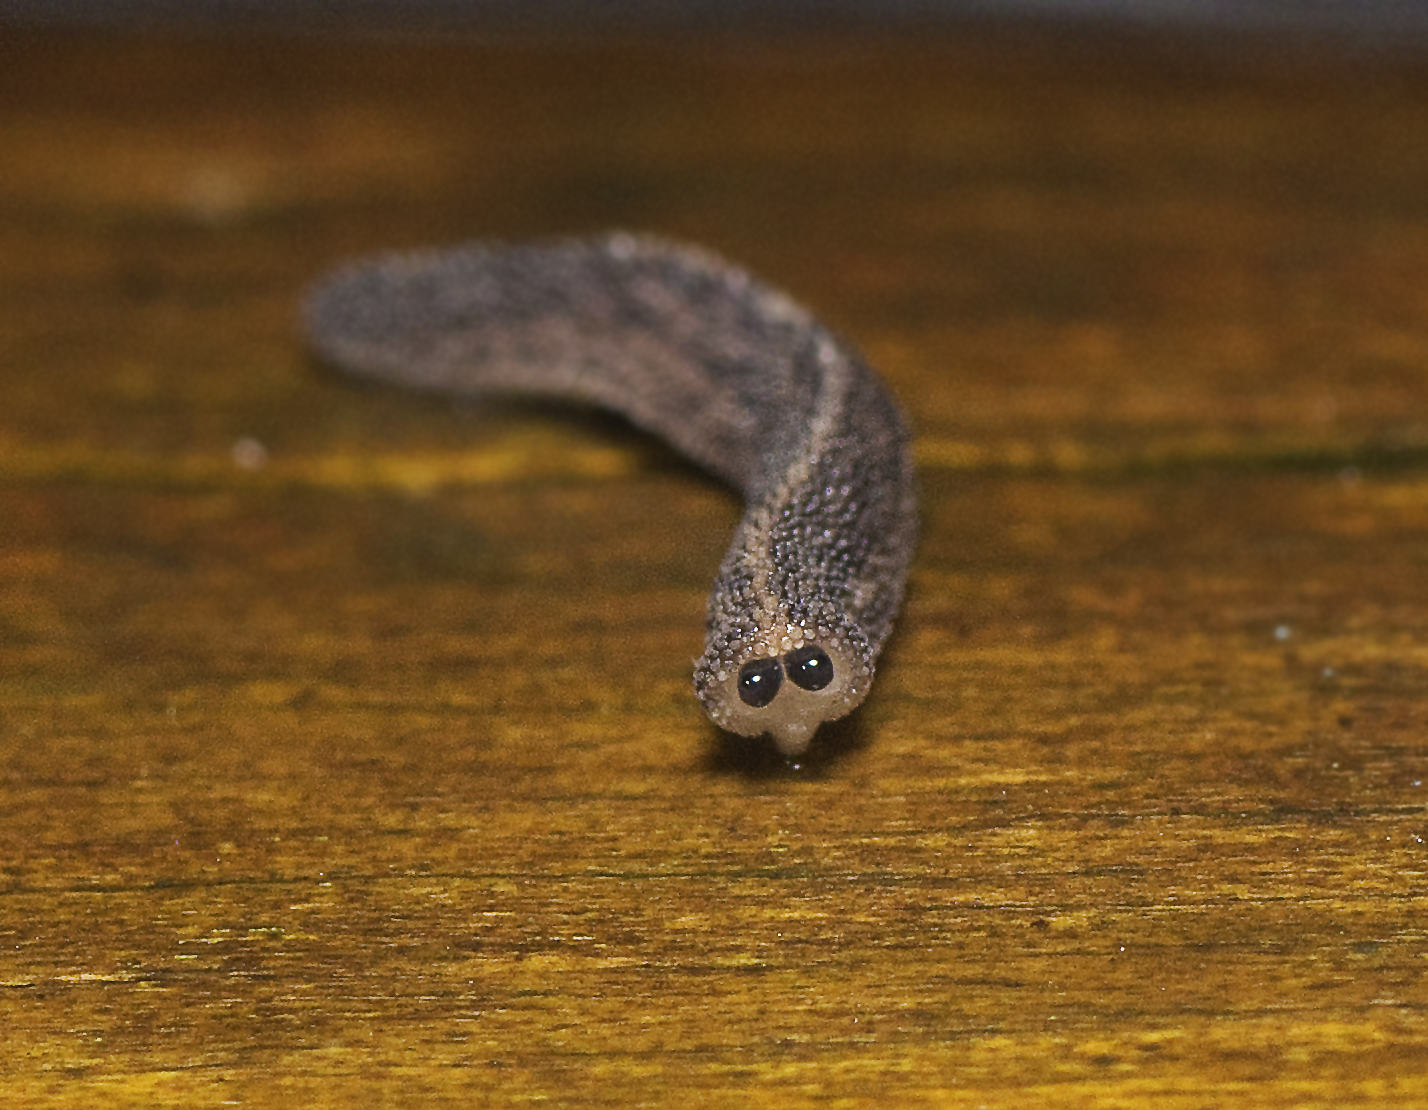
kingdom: Animalia
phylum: Mollusca
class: Gastropoda
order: Systellommatophora
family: Rathouisiidae
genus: Atopos
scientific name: Atopos australis
